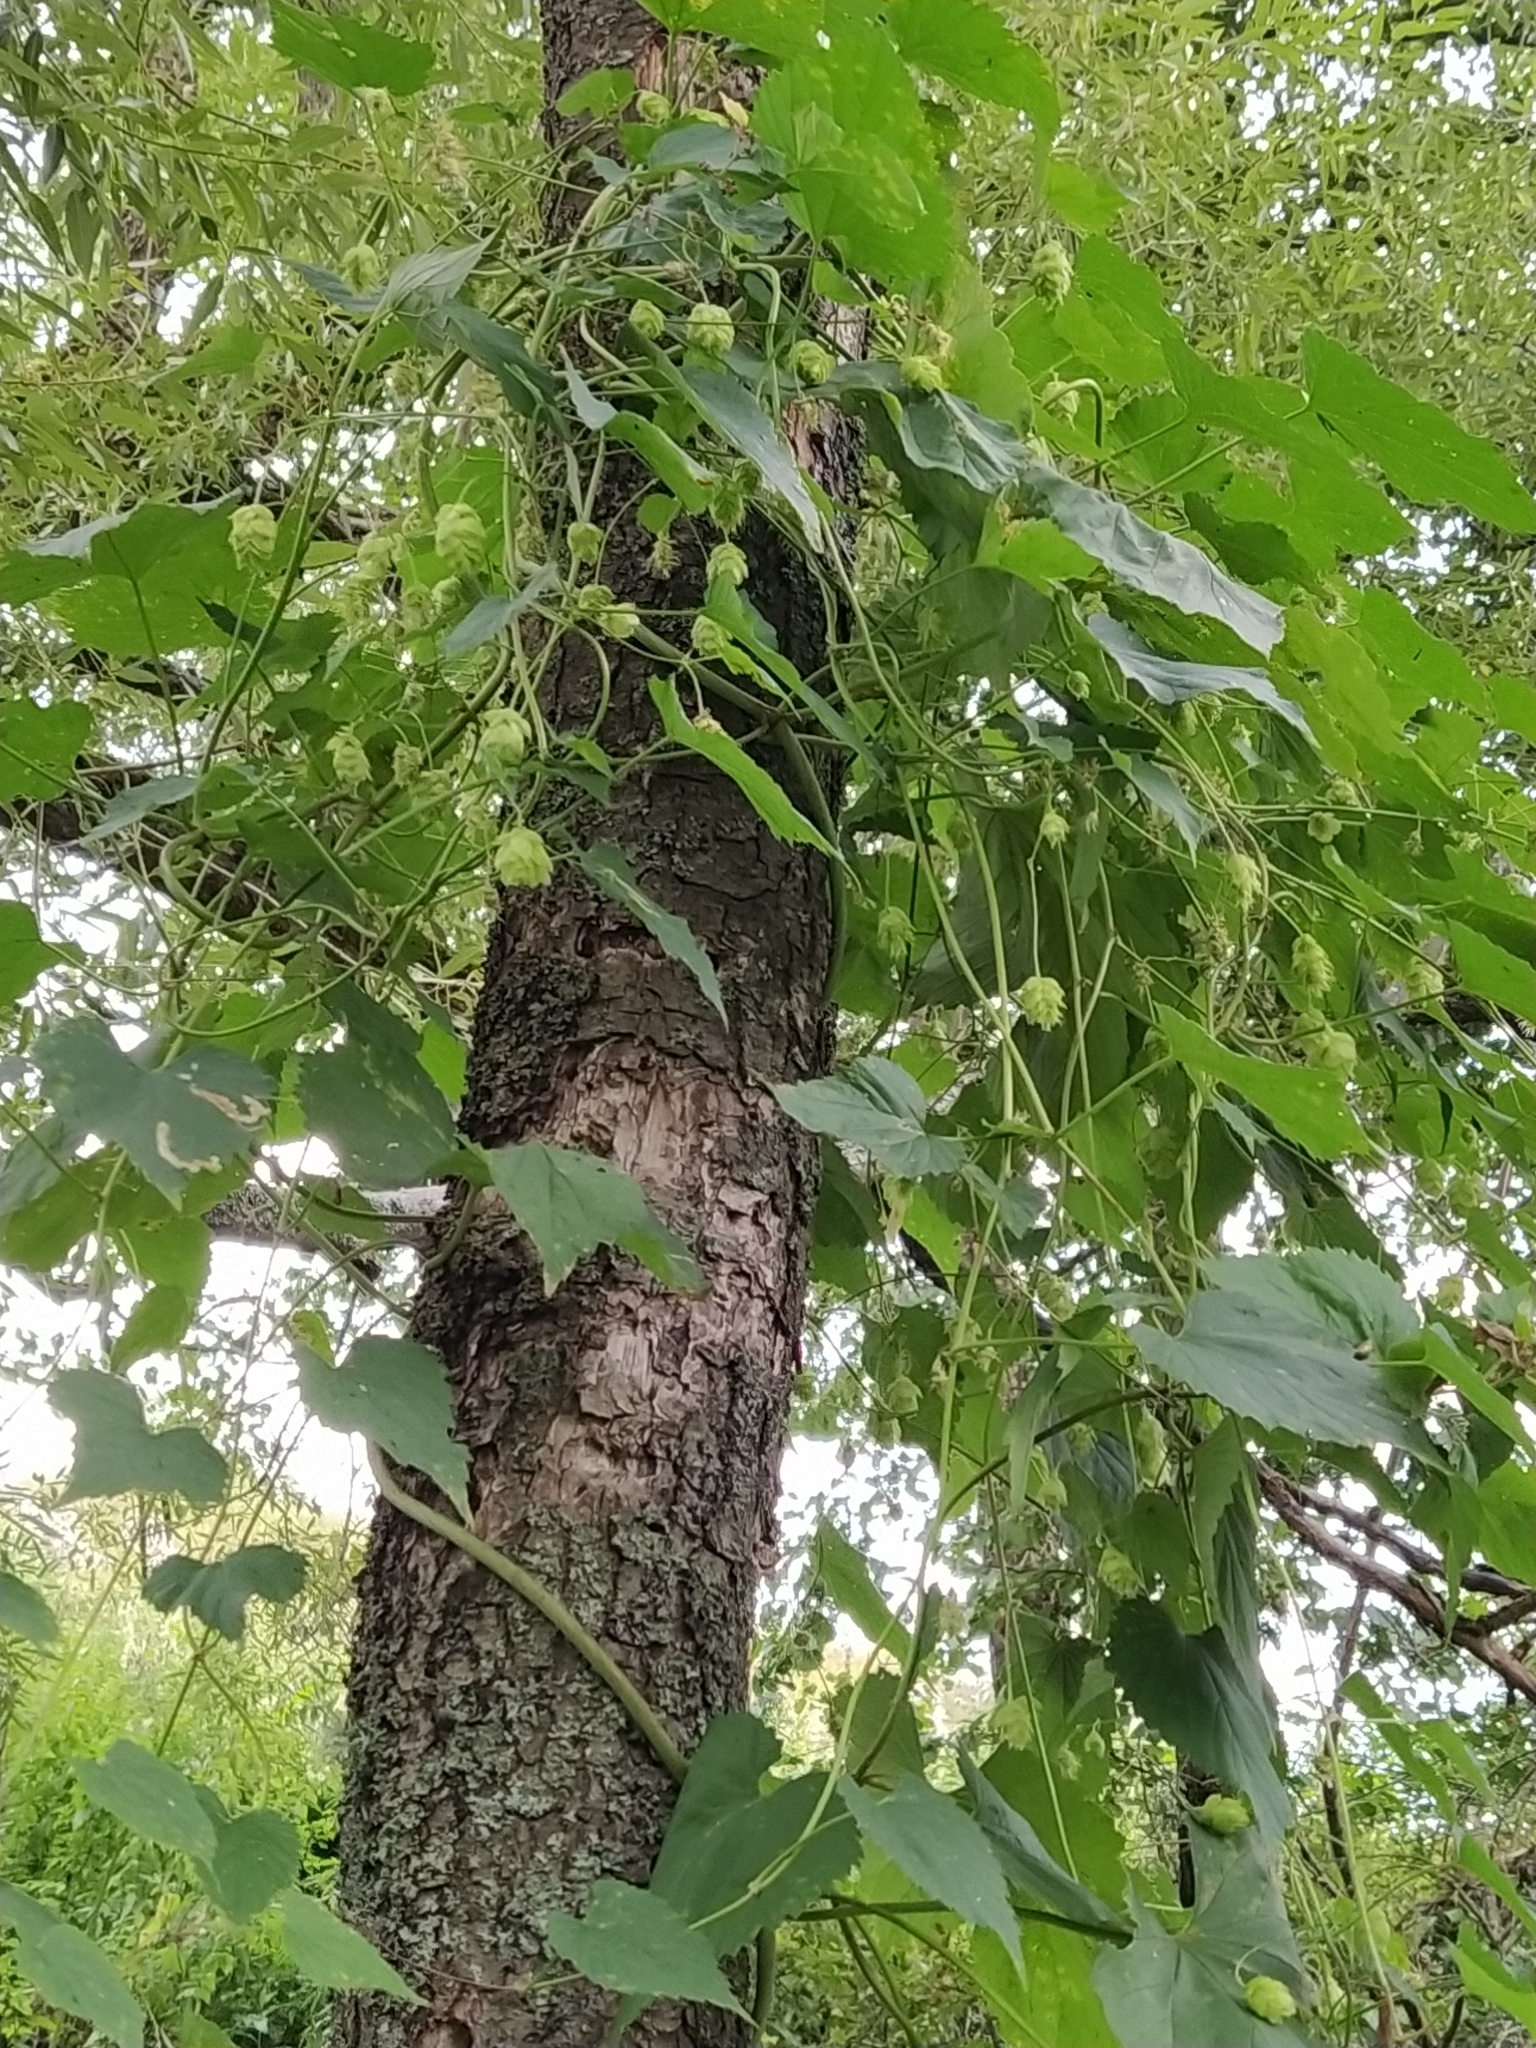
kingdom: Plantae
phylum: Tracheophyta
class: Magnoliopsida
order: Rosales
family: Cannabaceae
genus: Humulus
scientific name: Humulus lupulus
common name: Hop
